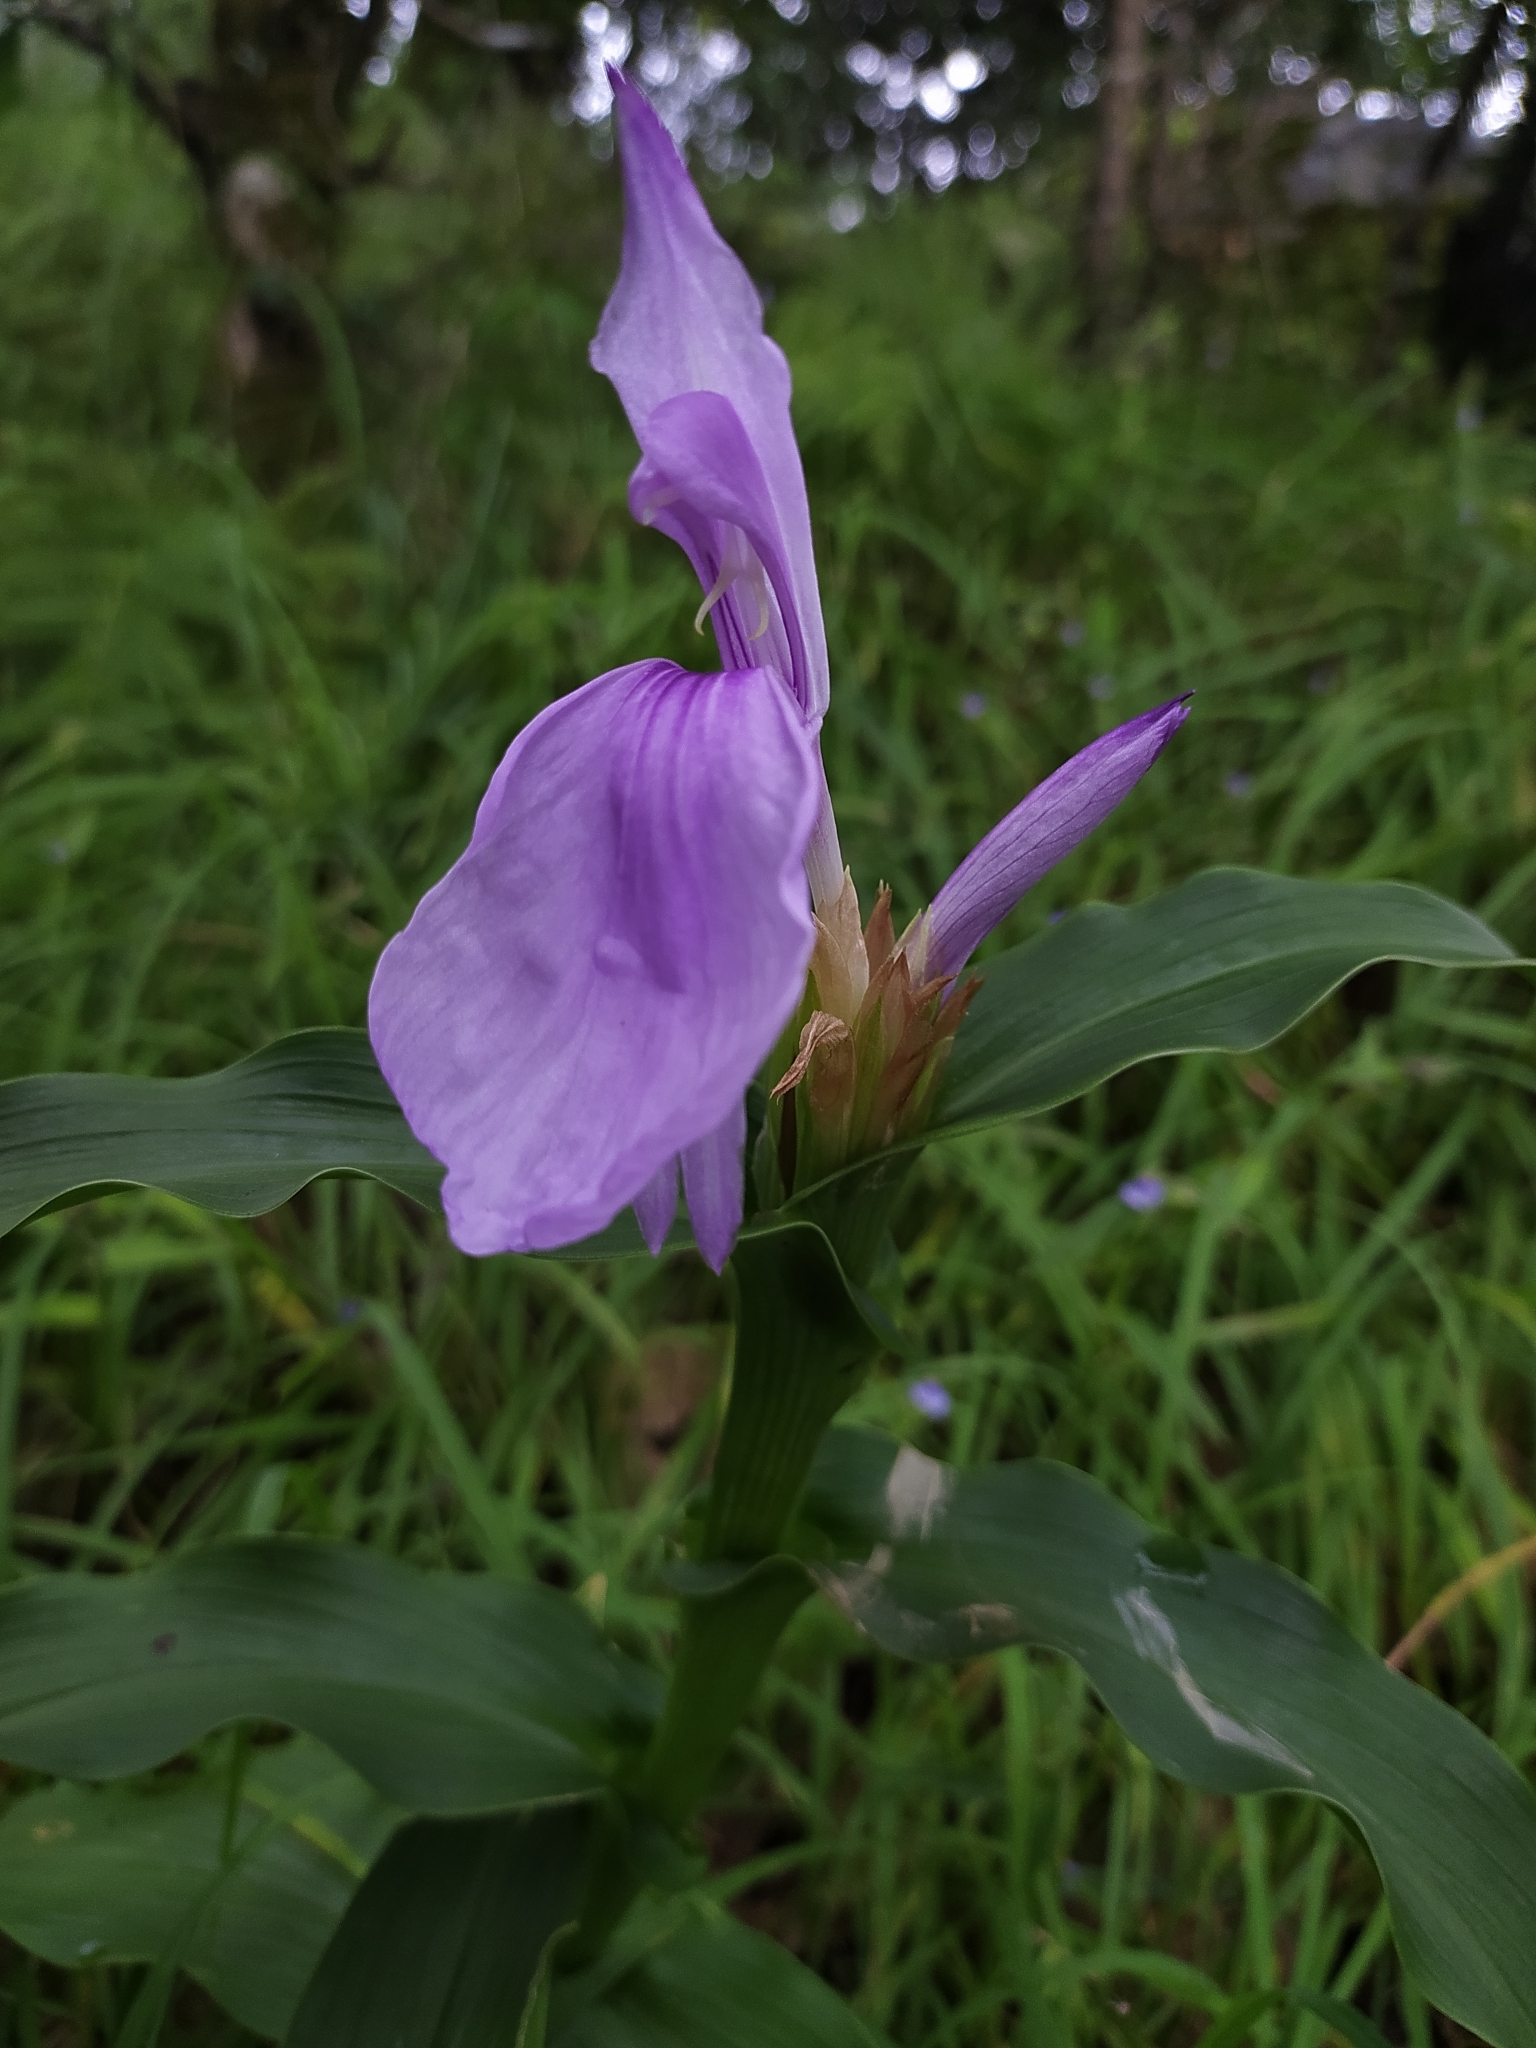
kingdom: Plantae
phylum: Tracheophyta
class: Liliopsida
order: Zingiberales
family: Zingiberaceae
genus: Roscoea
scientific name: Roscoea purpurea
